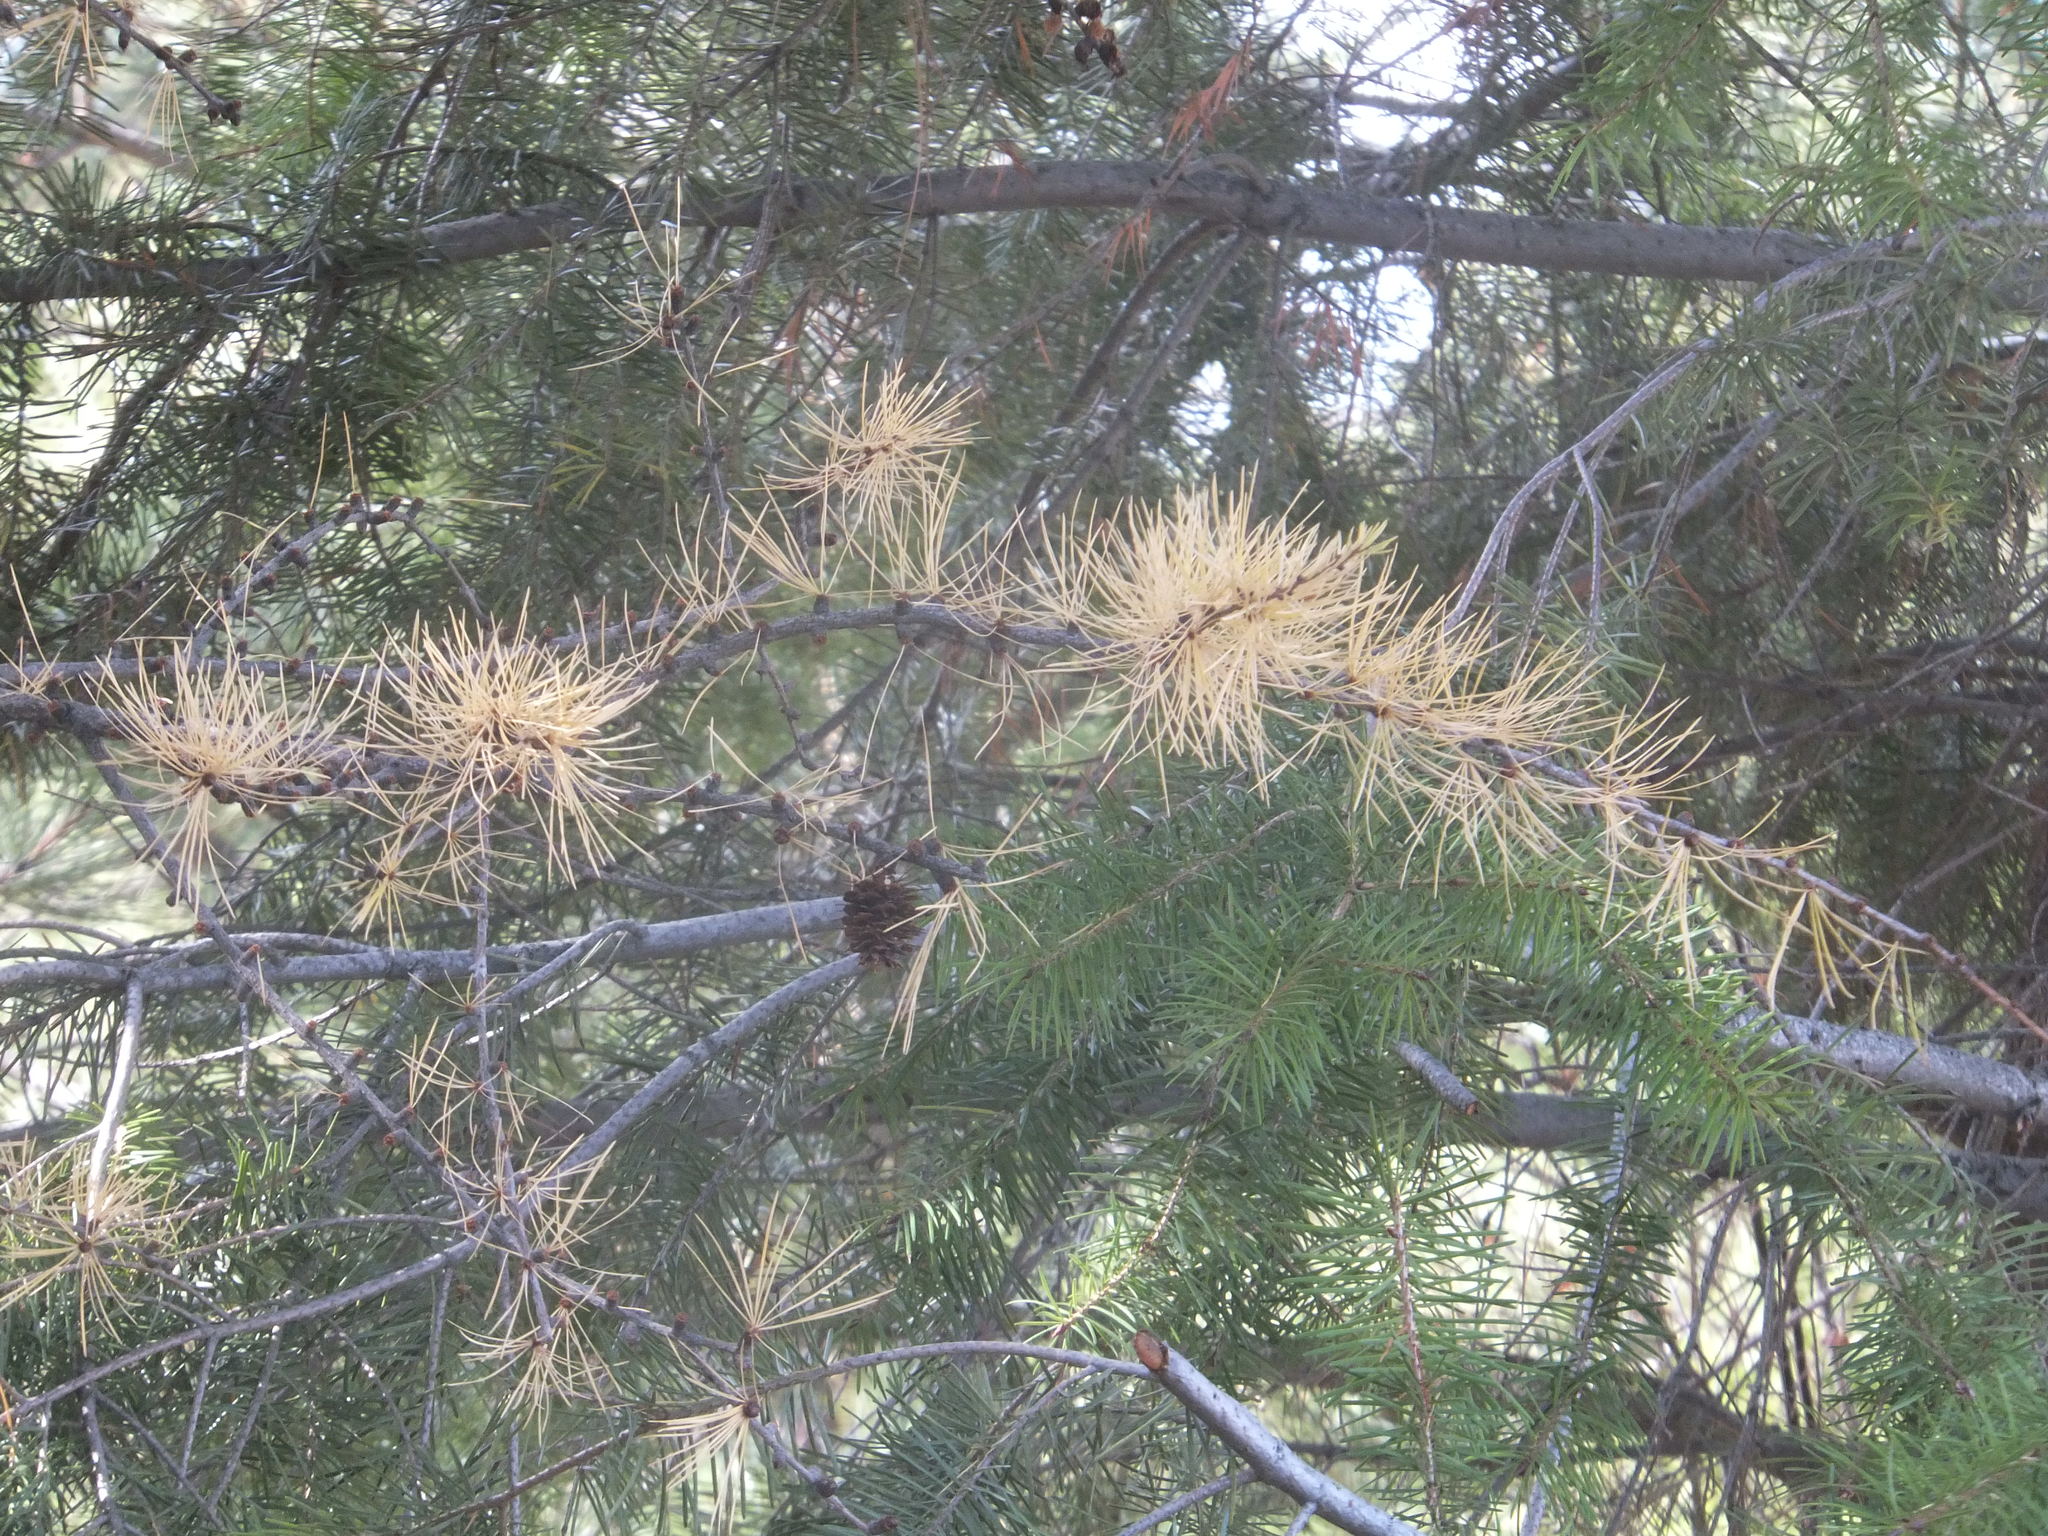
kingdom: Plantae
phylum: Tracheophyta
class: Pinopsida
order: Pinales
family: Pinaceae
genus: Larix
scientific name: Larix occidentalis
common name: Western larch
